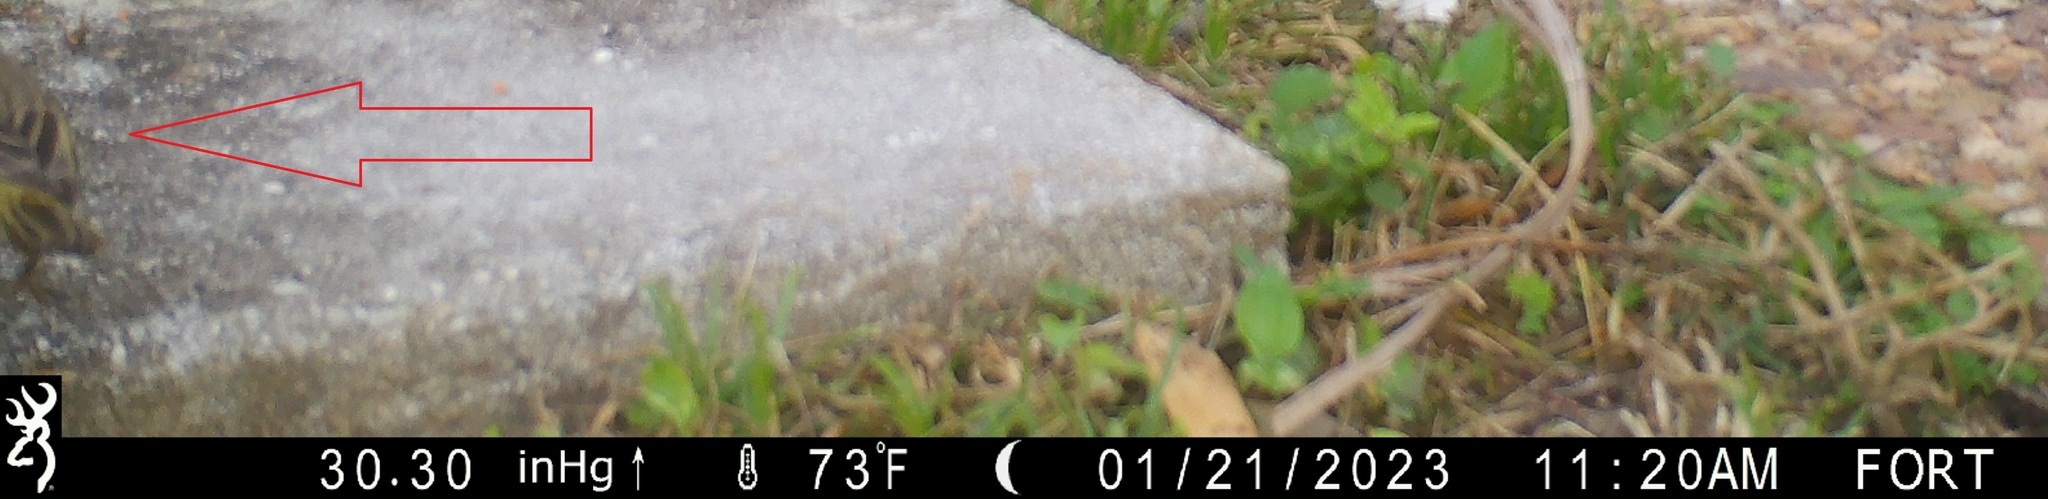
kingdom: Animalia
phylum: Chordata
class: Aves
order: Passeriformes
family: Parulidae
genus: Setophaga
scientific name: Setophaga palmarum
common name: Palm warbler
